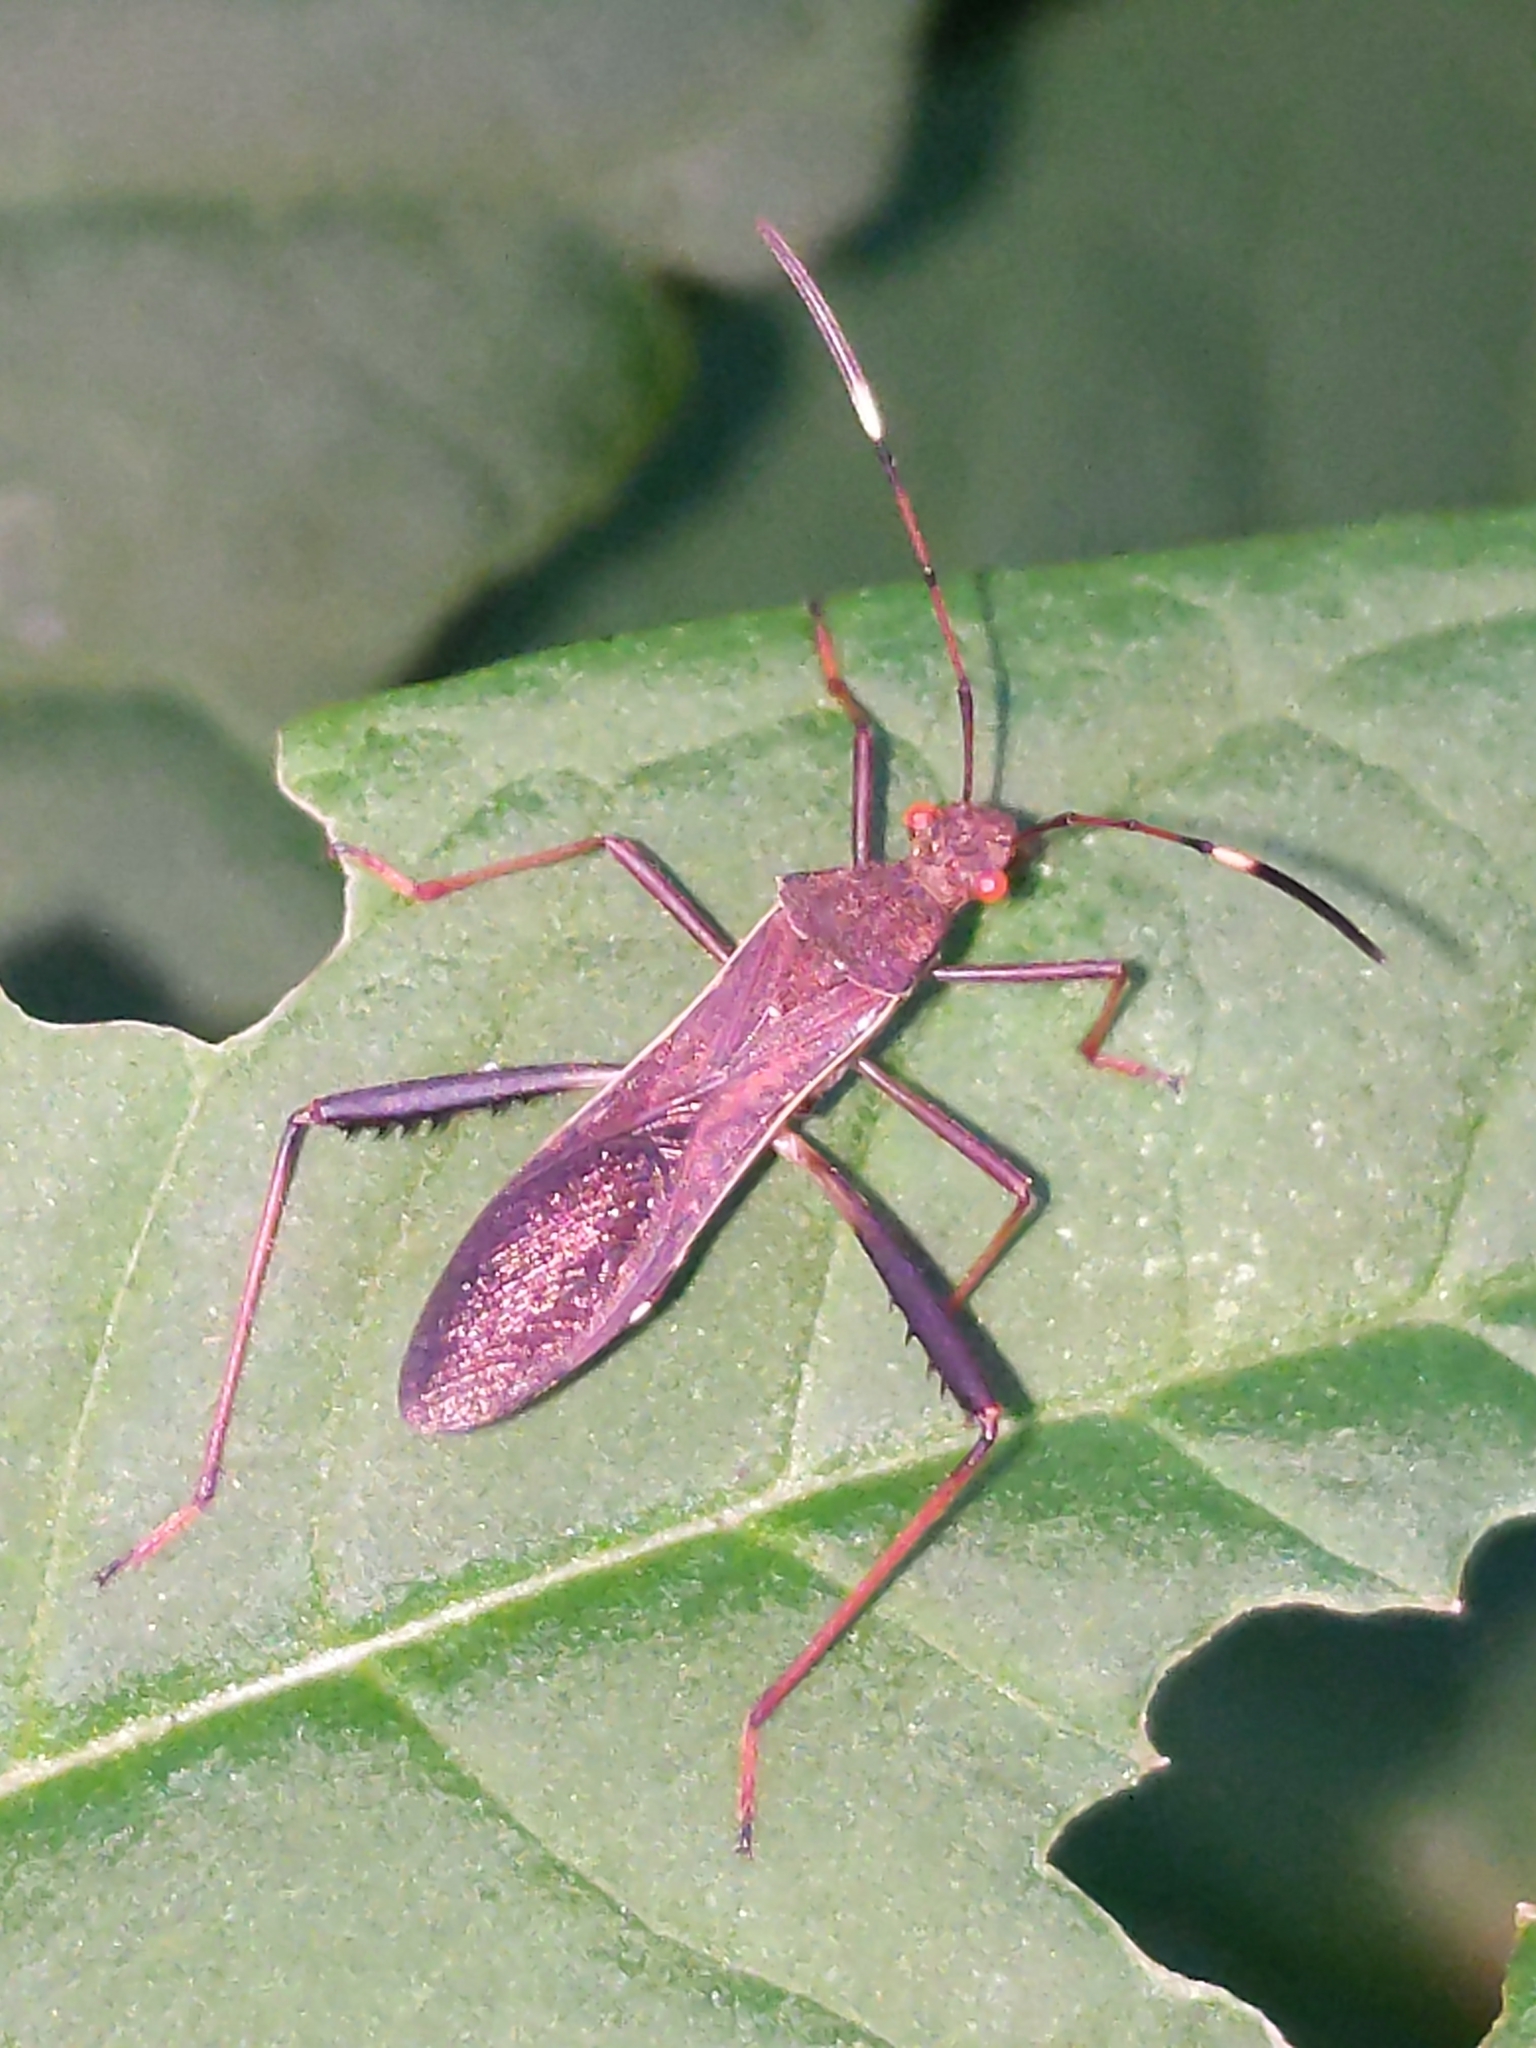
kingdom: Animalia
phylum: Arthropoda
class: Insecta
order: Hemiptera
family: Alydidae
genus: Megalotomus
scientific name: Megalotomus quinquespinosus
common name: Lupine bug
